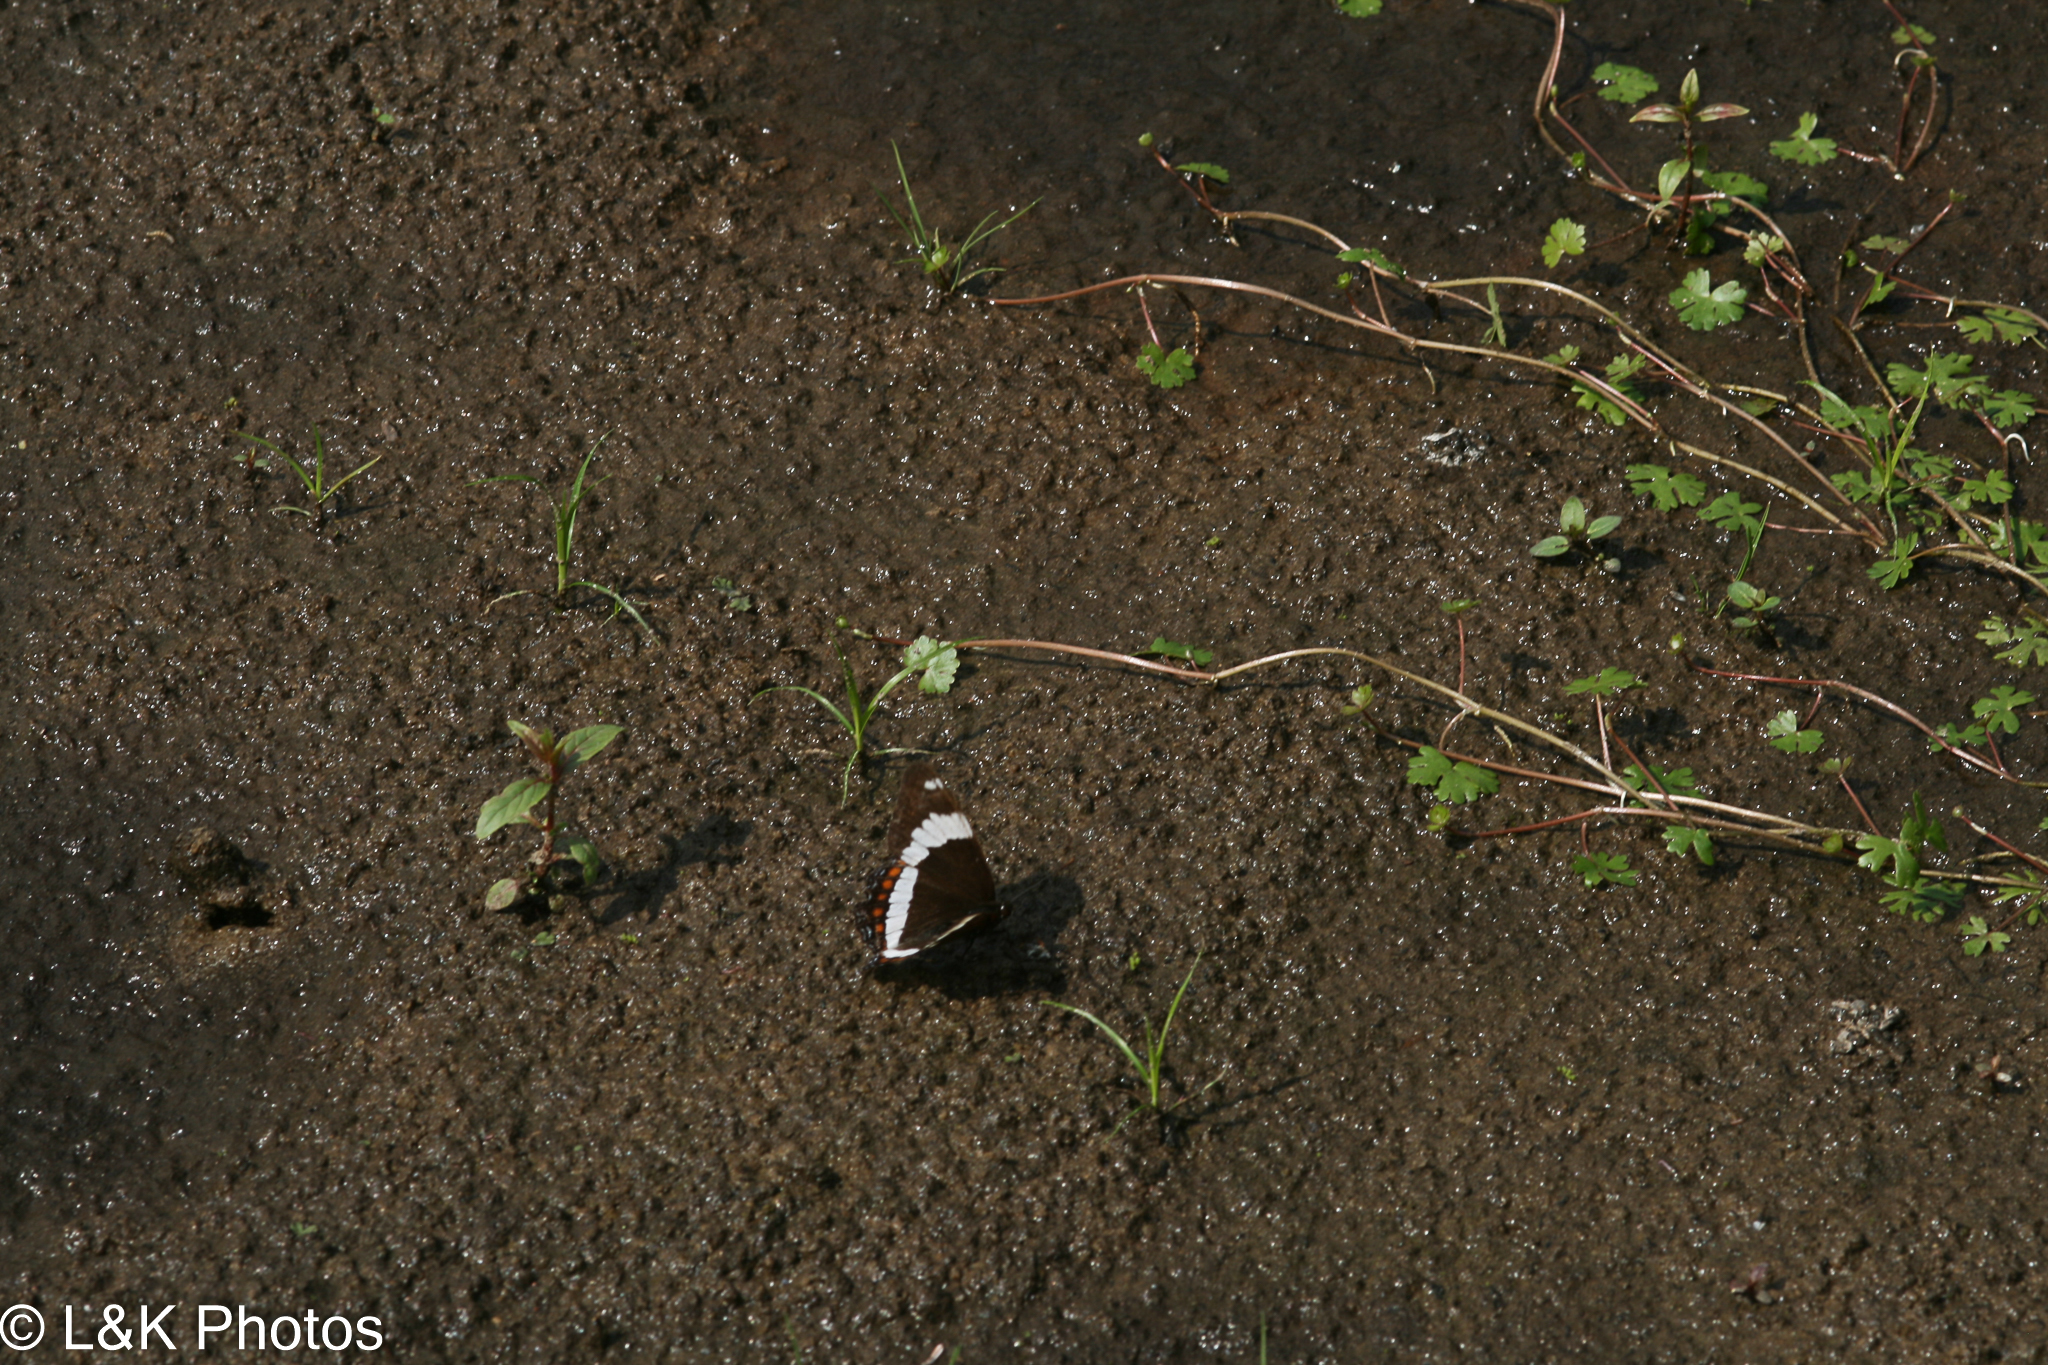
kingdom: Animalia
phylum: Arthropoda
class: Insecta
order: Lepidoptera
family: Nymphalidae
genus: Limenitis
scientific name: Limenitis arthemis
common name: Red-spotted admiral
